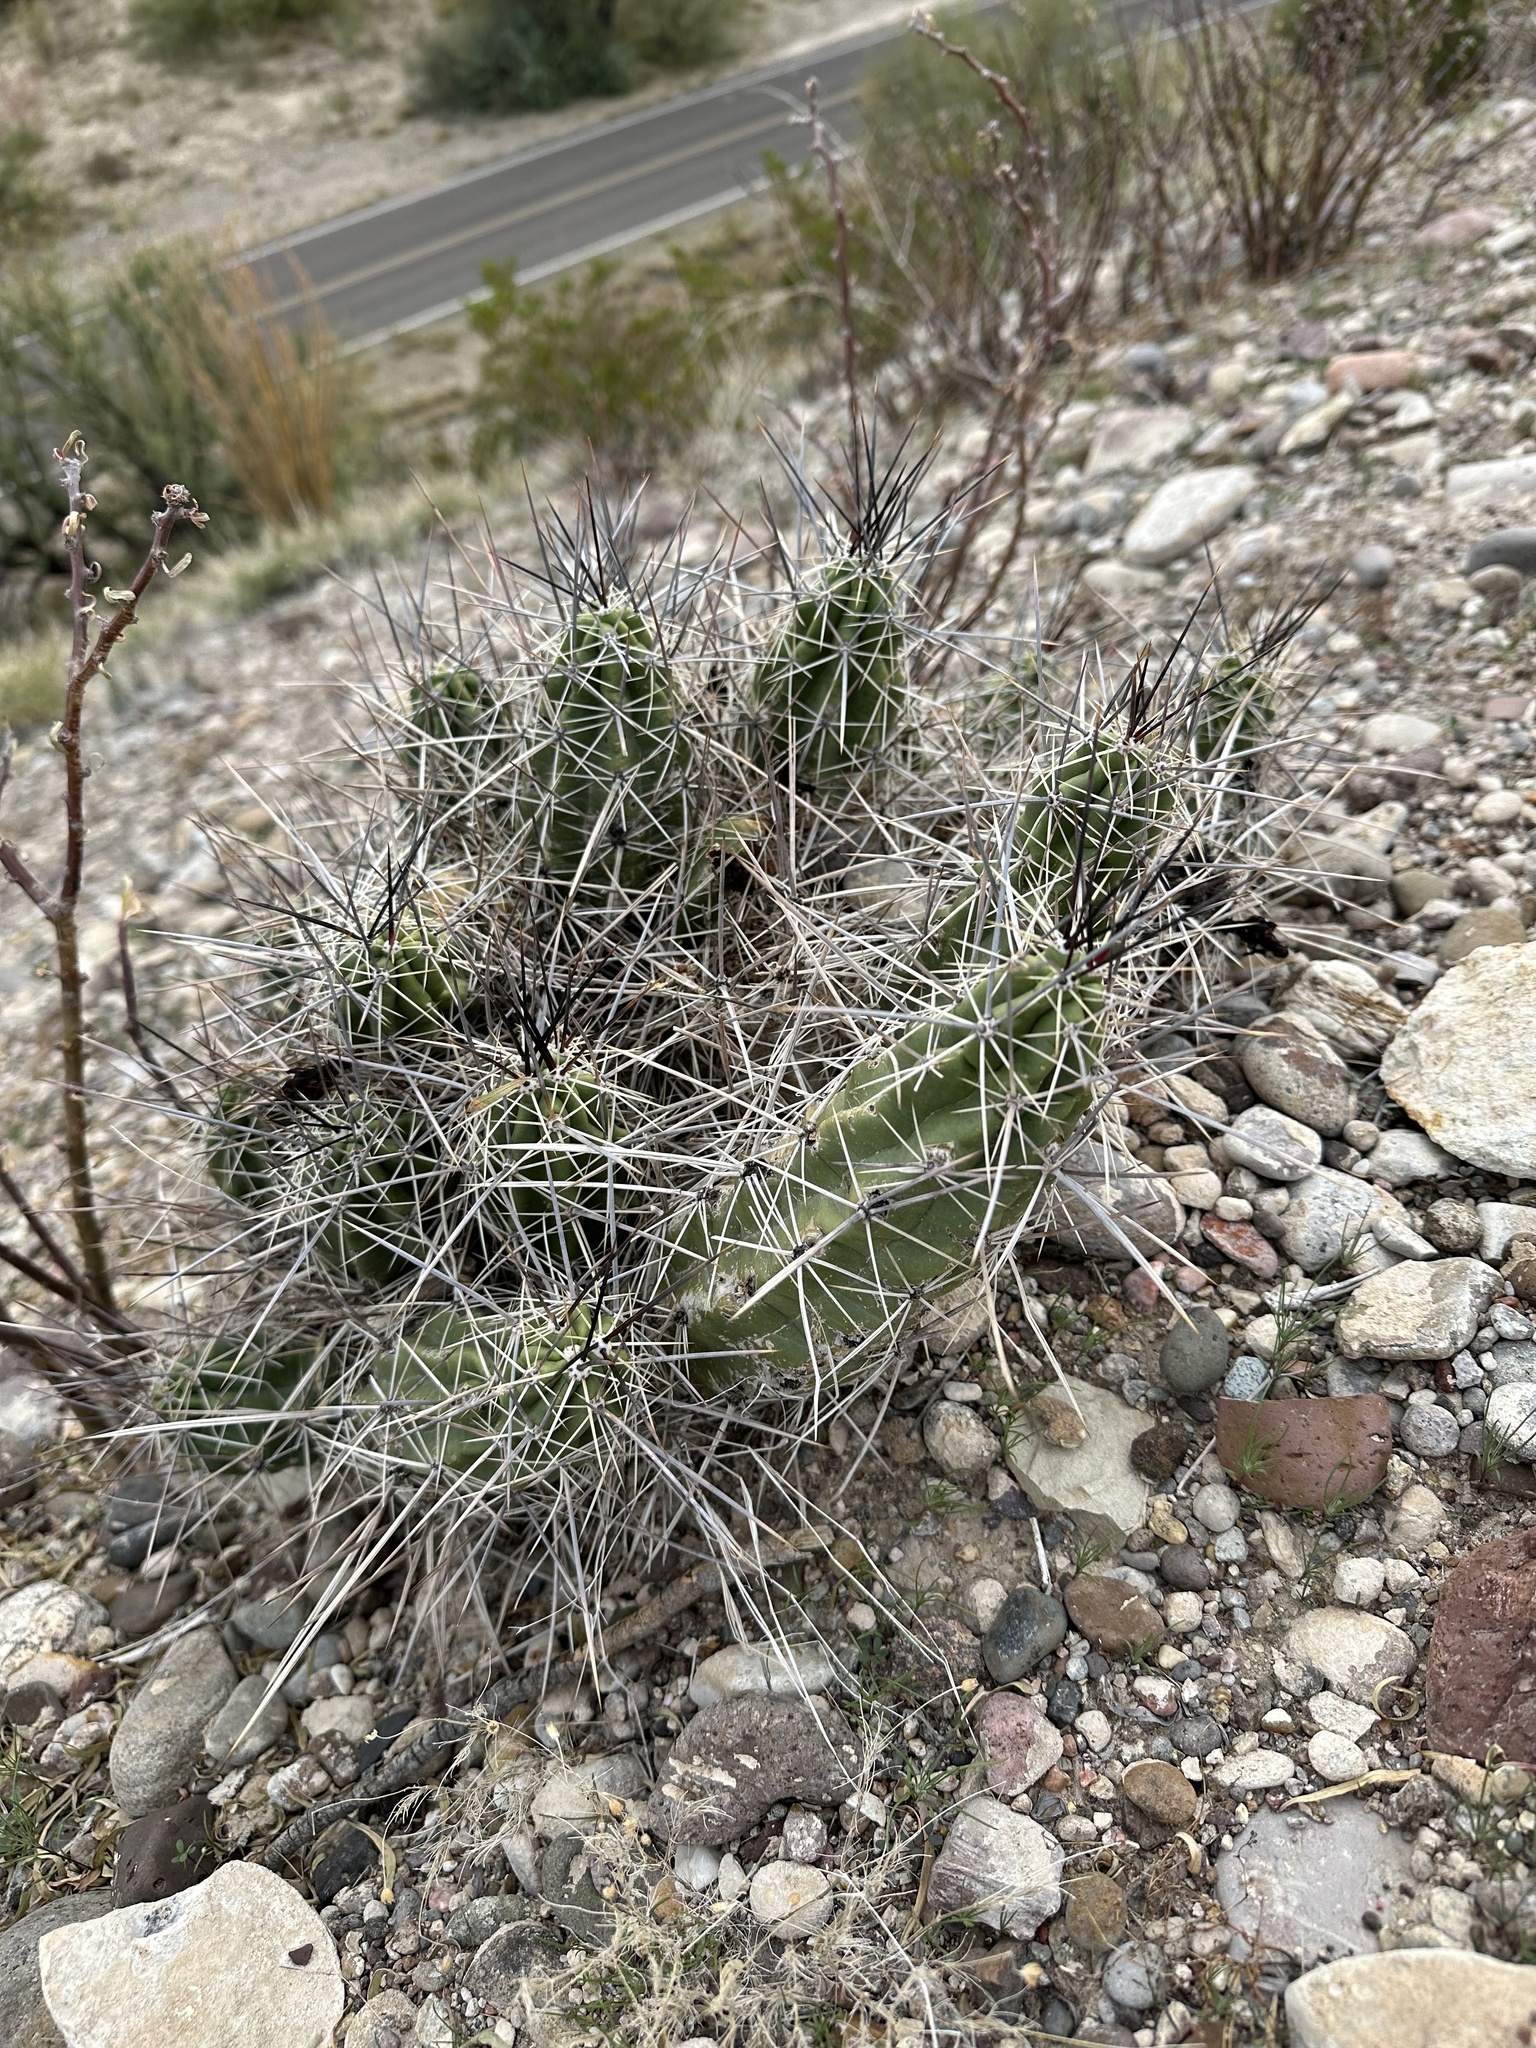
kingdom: Plantae
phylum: Tracheophyta
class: Magnoliopsida
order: Caryophyllales
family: Cactaceae
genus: Echinocereus
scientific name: Echinocereus enneacanthus
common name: Pitaya
